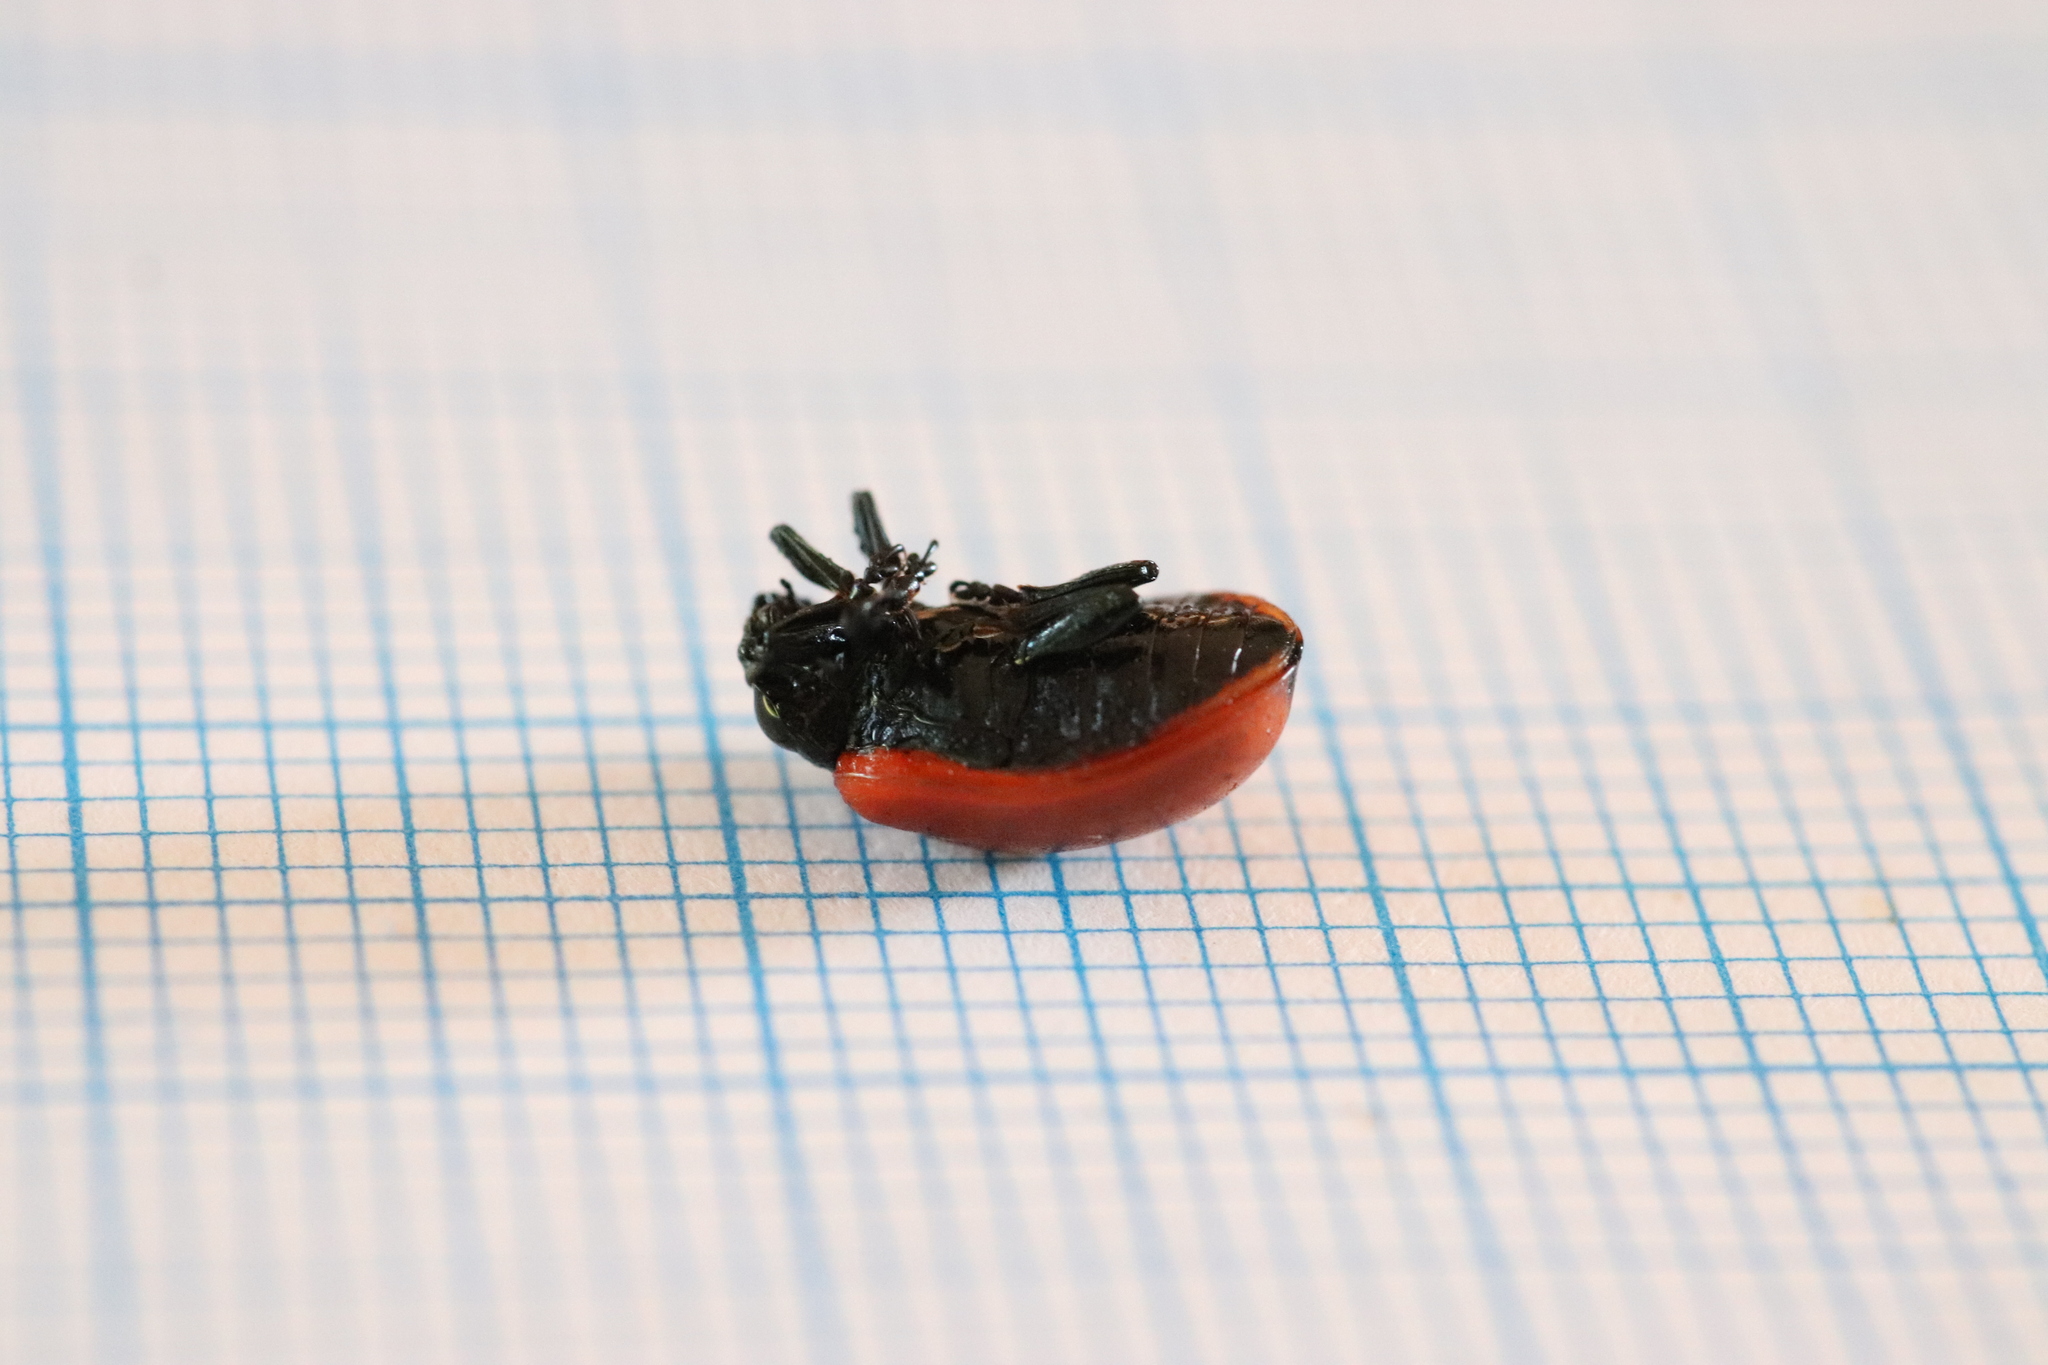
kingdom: Animalia
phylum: Arthropoda
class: Insecta
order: Coleoptera
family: Chrysomelidae
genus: Chrysomela
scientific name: Chrysomela populi
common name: Red poplar leaf beetle
